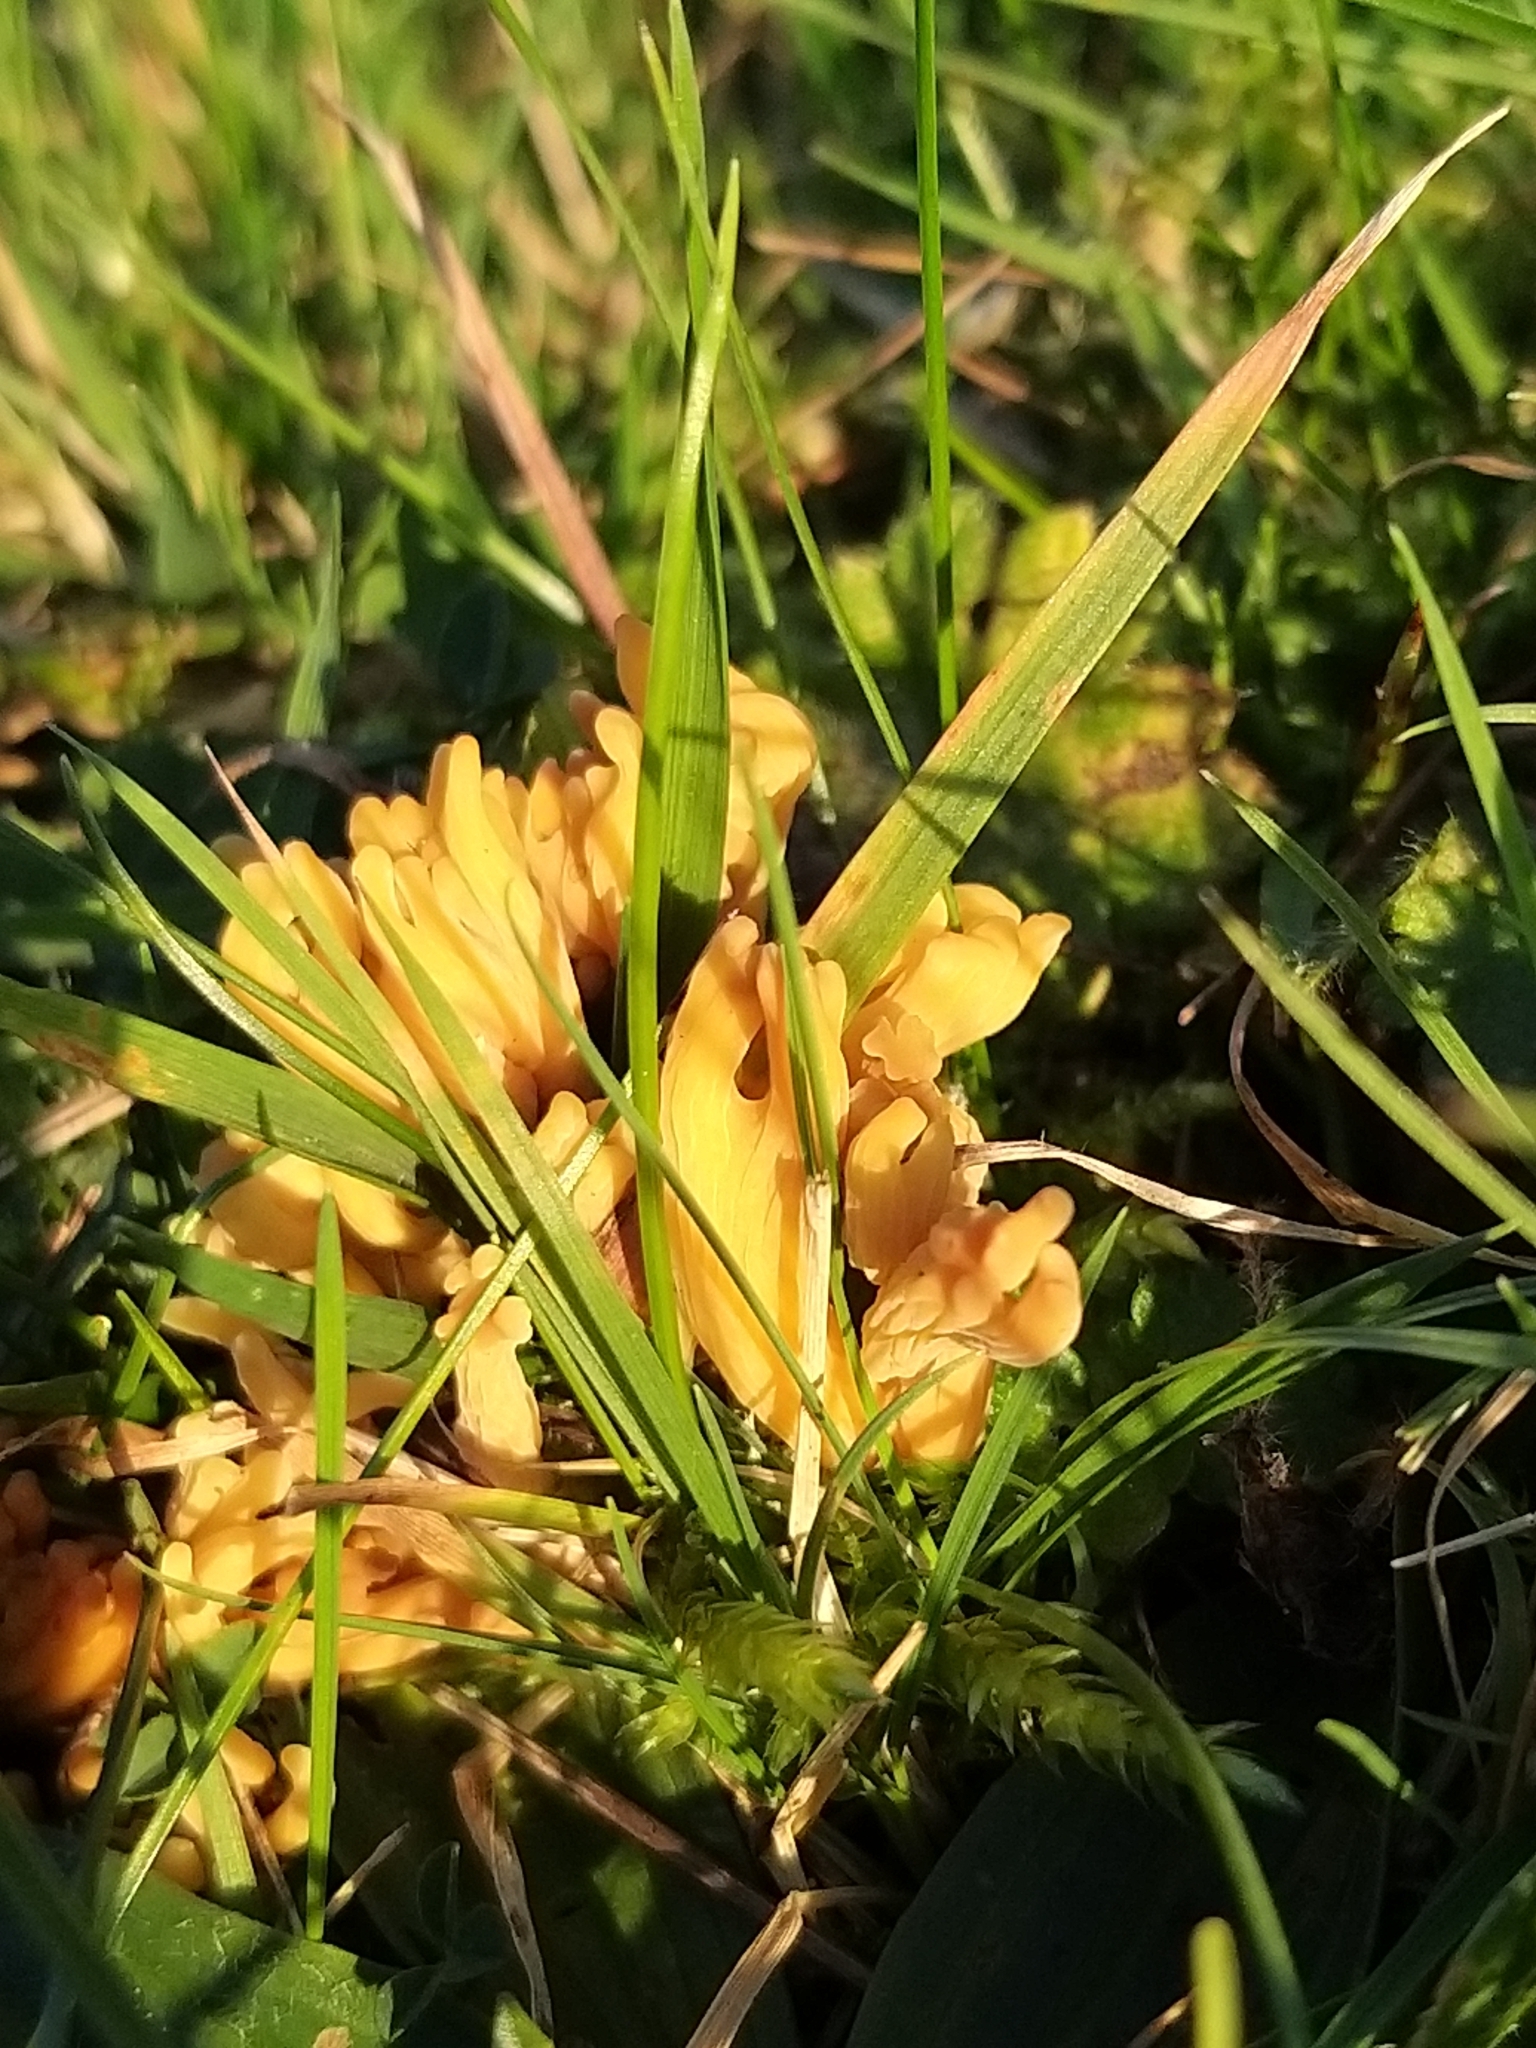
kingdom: Fungi
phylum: Basidiomycota
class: Agaricomycetes
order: Agaricales
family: Clavariaceae
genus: Clavulinopsis
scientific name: Clavulinopsis corniculata
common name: Meadow coral
